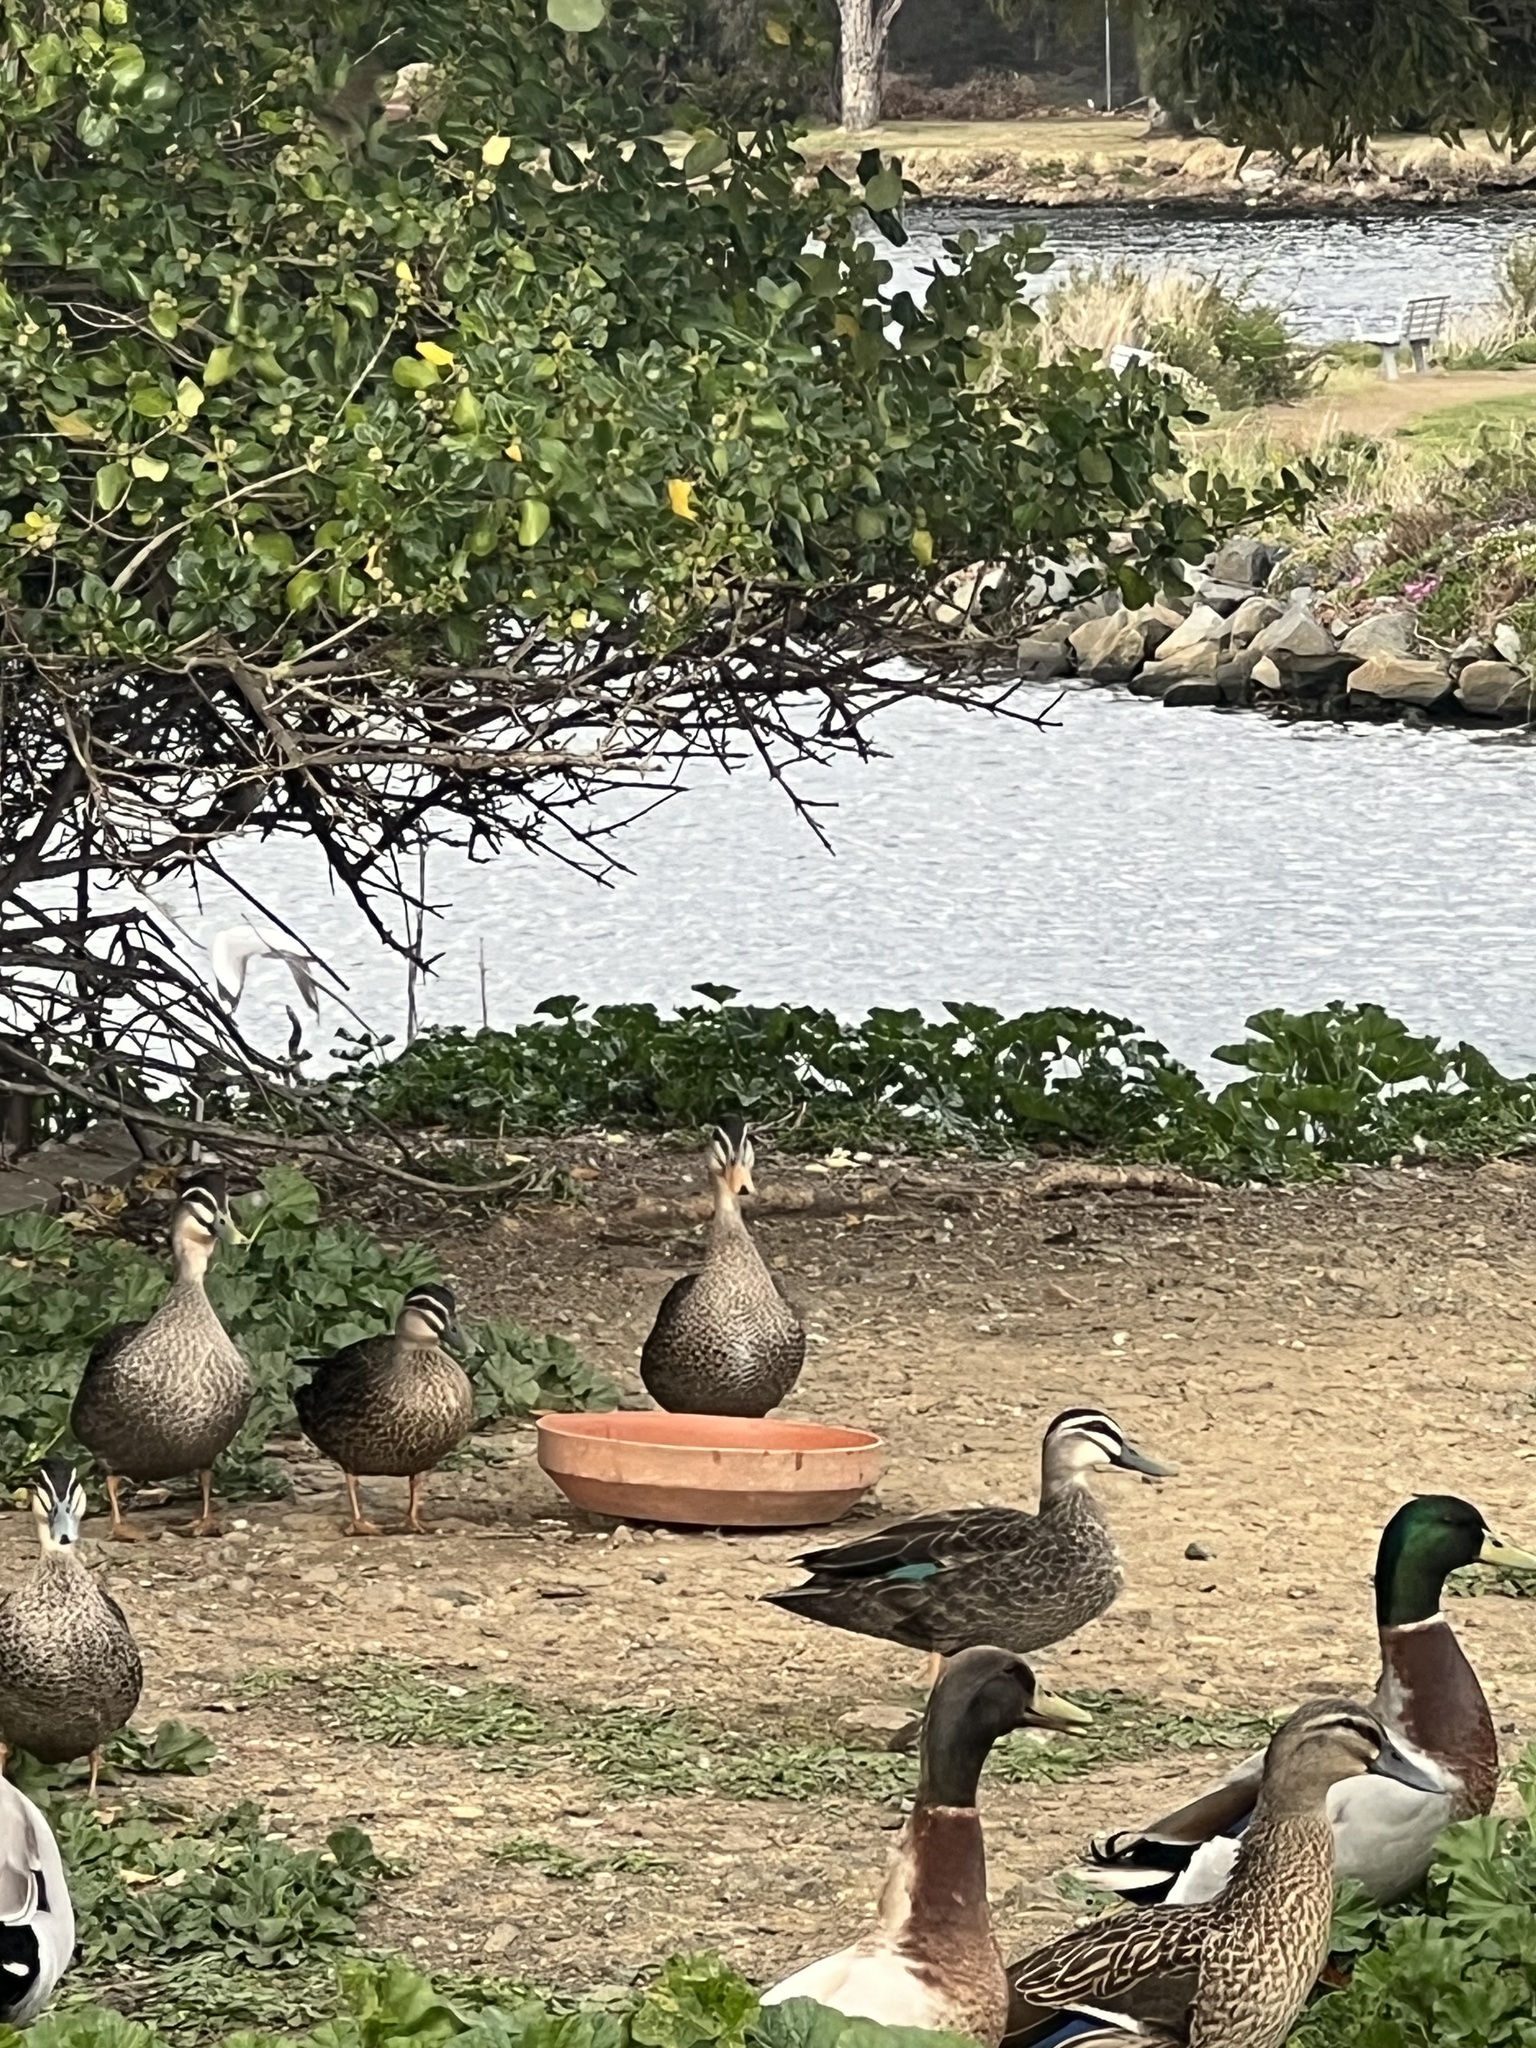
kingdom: Animalia
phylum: Chordata
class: Aves
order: Anseriformes
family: Anatidae
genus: Anas
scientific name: Anas
